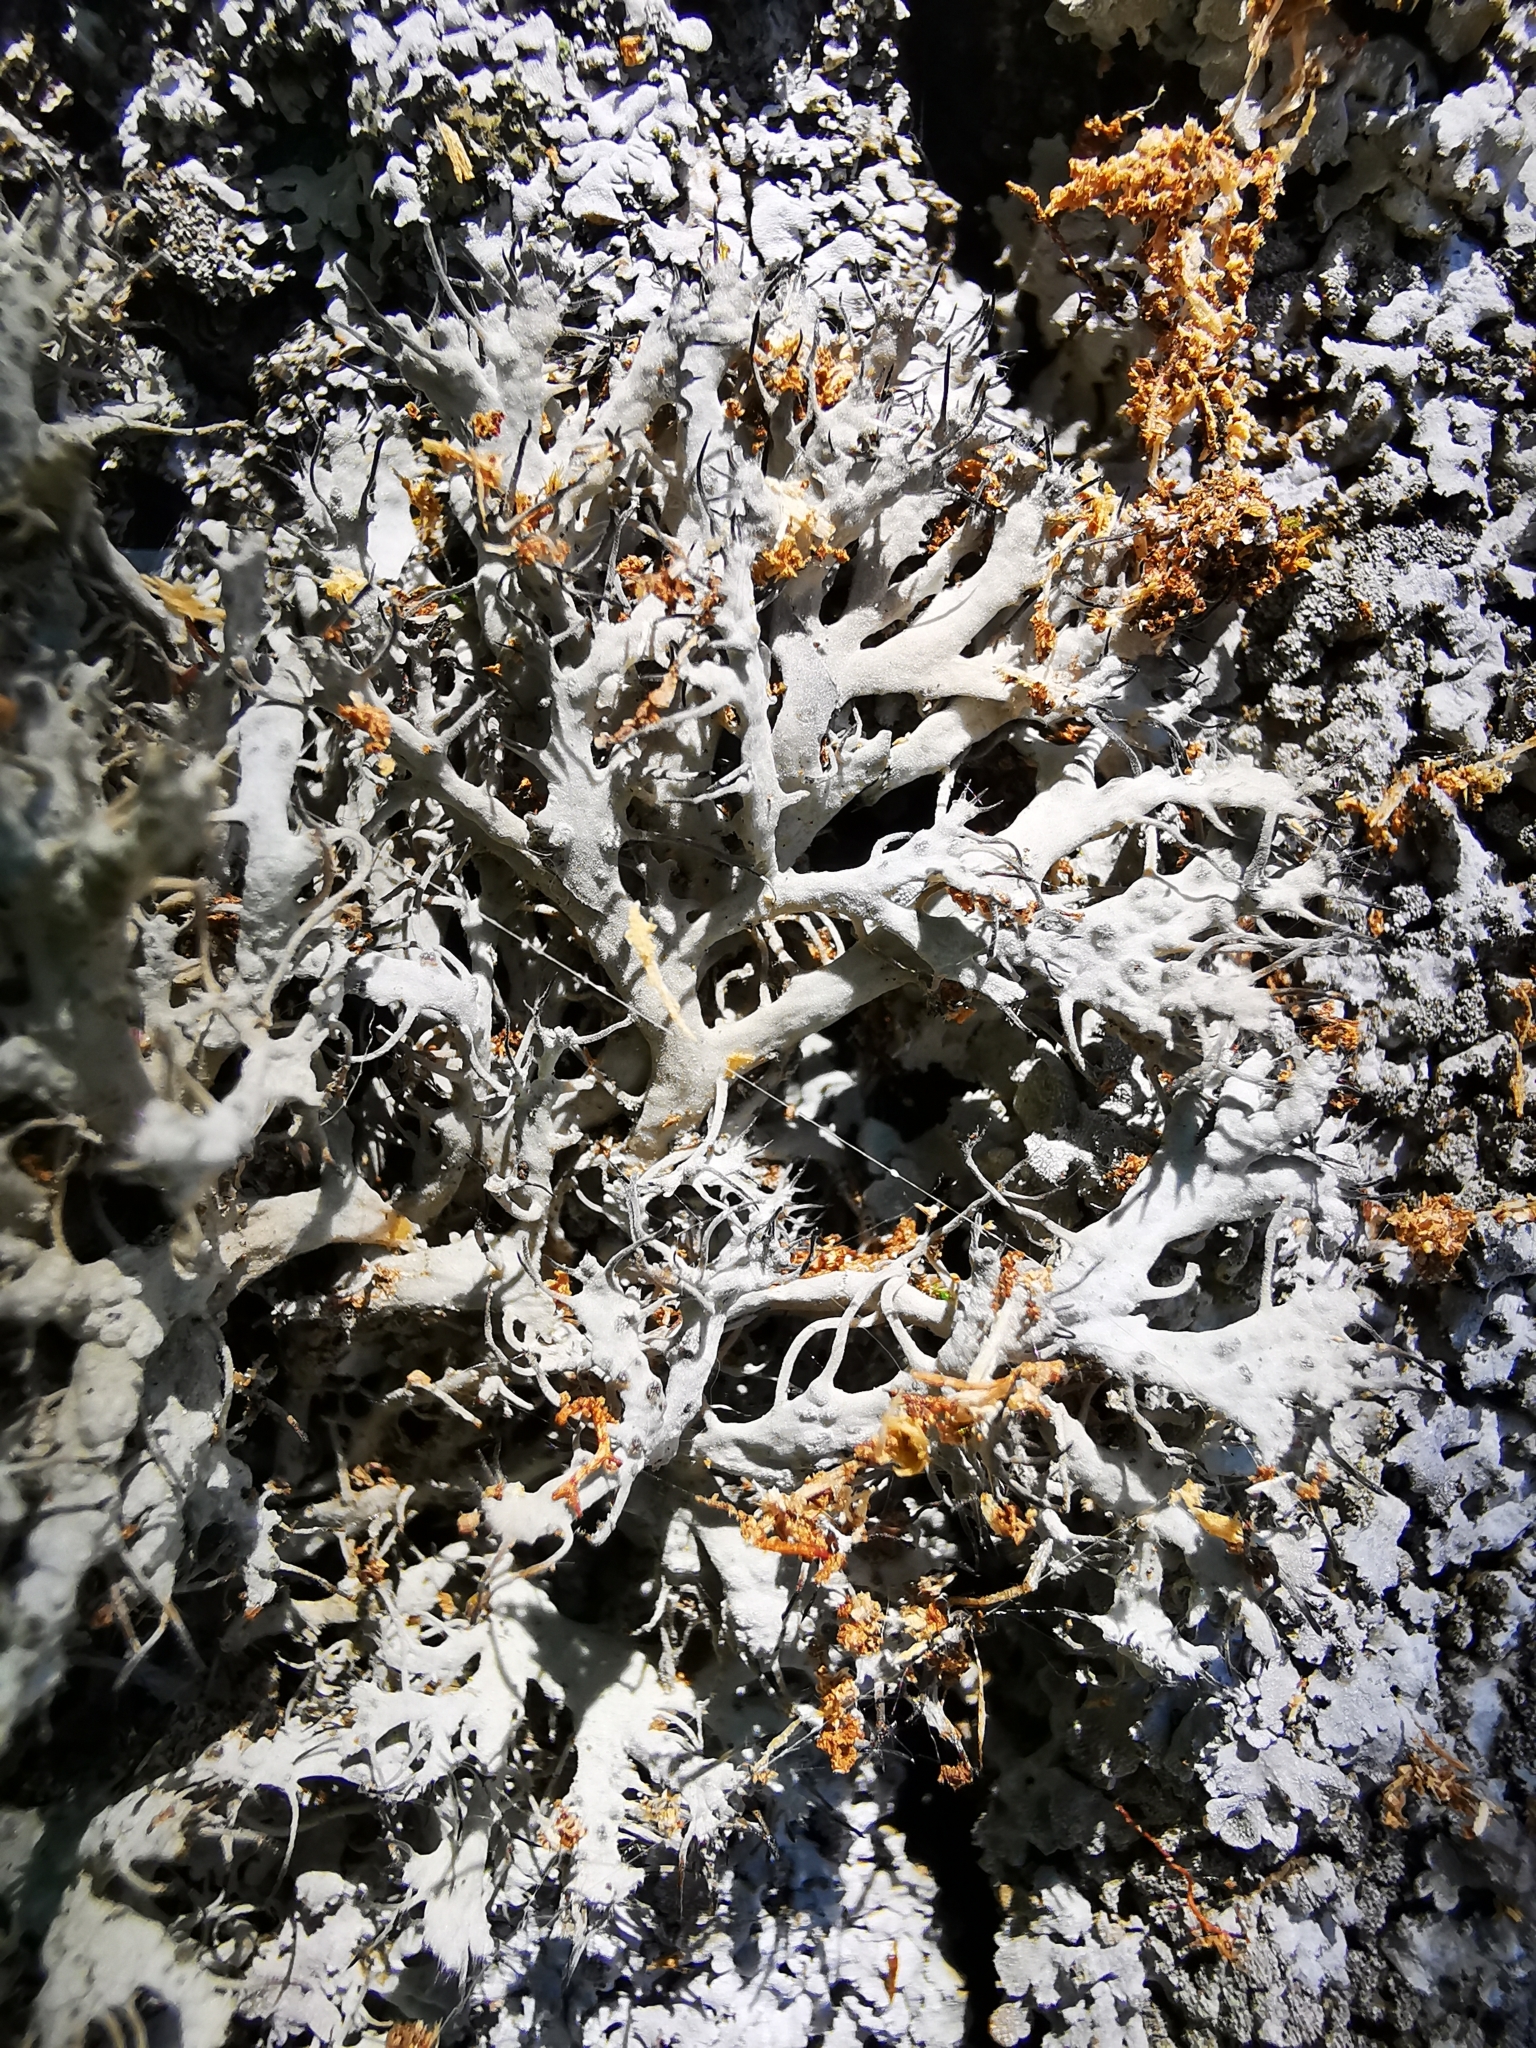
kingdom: Fungi
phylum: Ascomycota
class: Lecanoromycetes
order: Caliciales
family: Physciaceae
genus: Anaptychia
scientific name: Anaptychia ciliaris
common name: Great ciliated lichen
